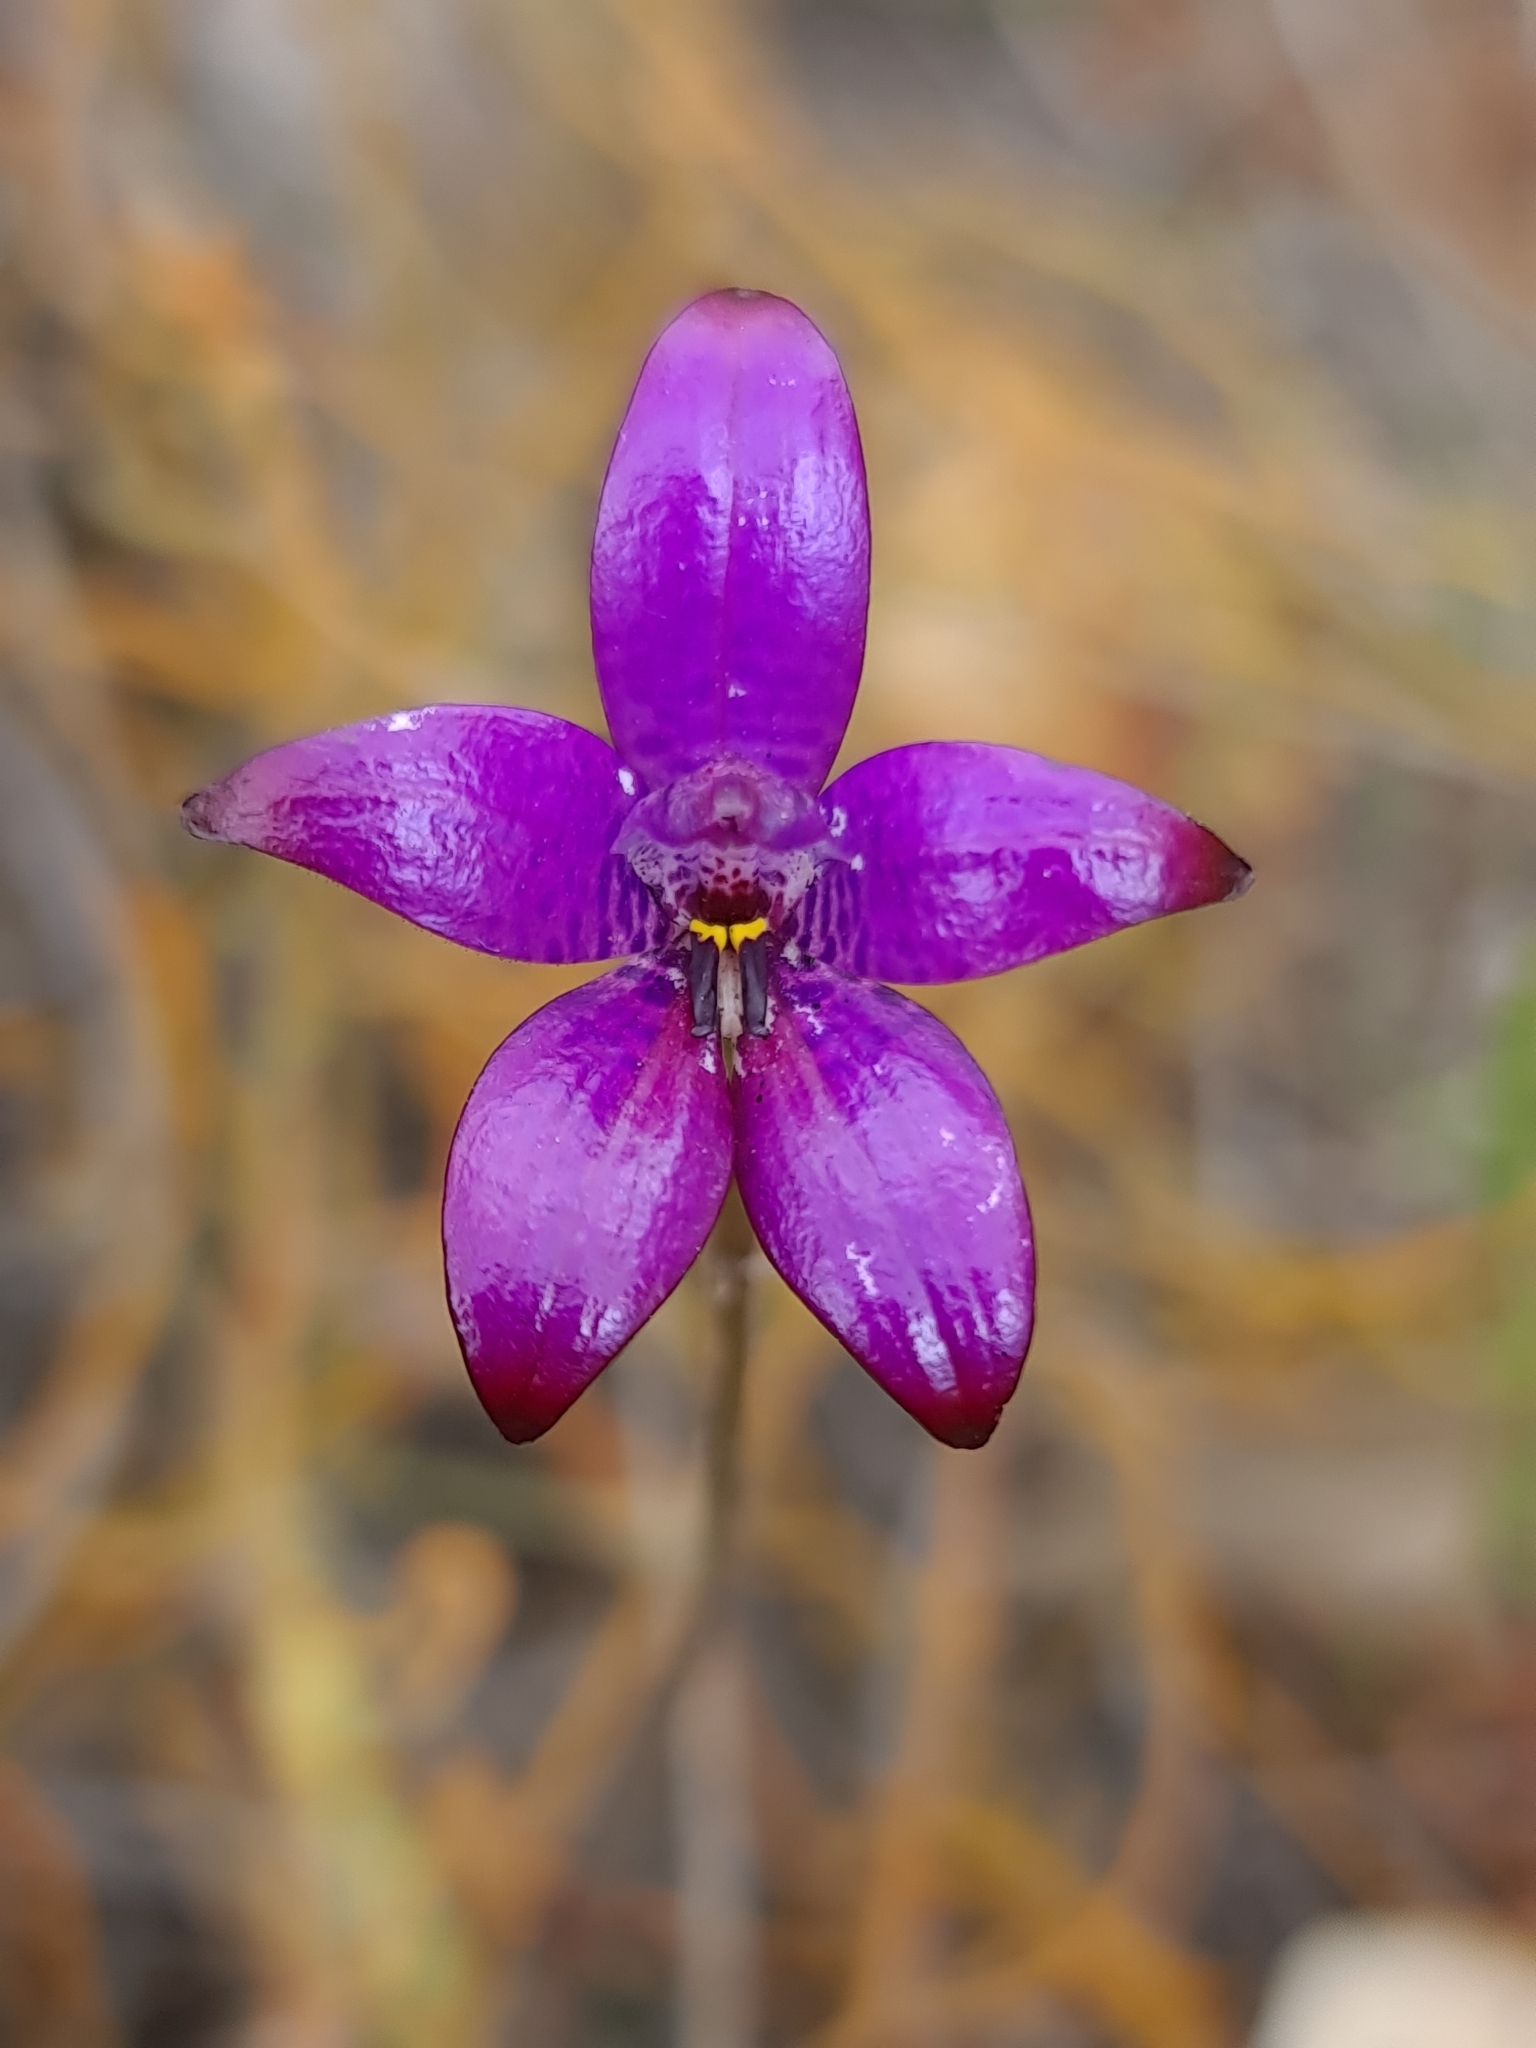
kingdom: Plantae
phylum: Tracheophyta
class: Liliopsida
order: Asparagales
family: Orchidaceae
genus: Caladenia
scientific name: Caladenia brunonis
